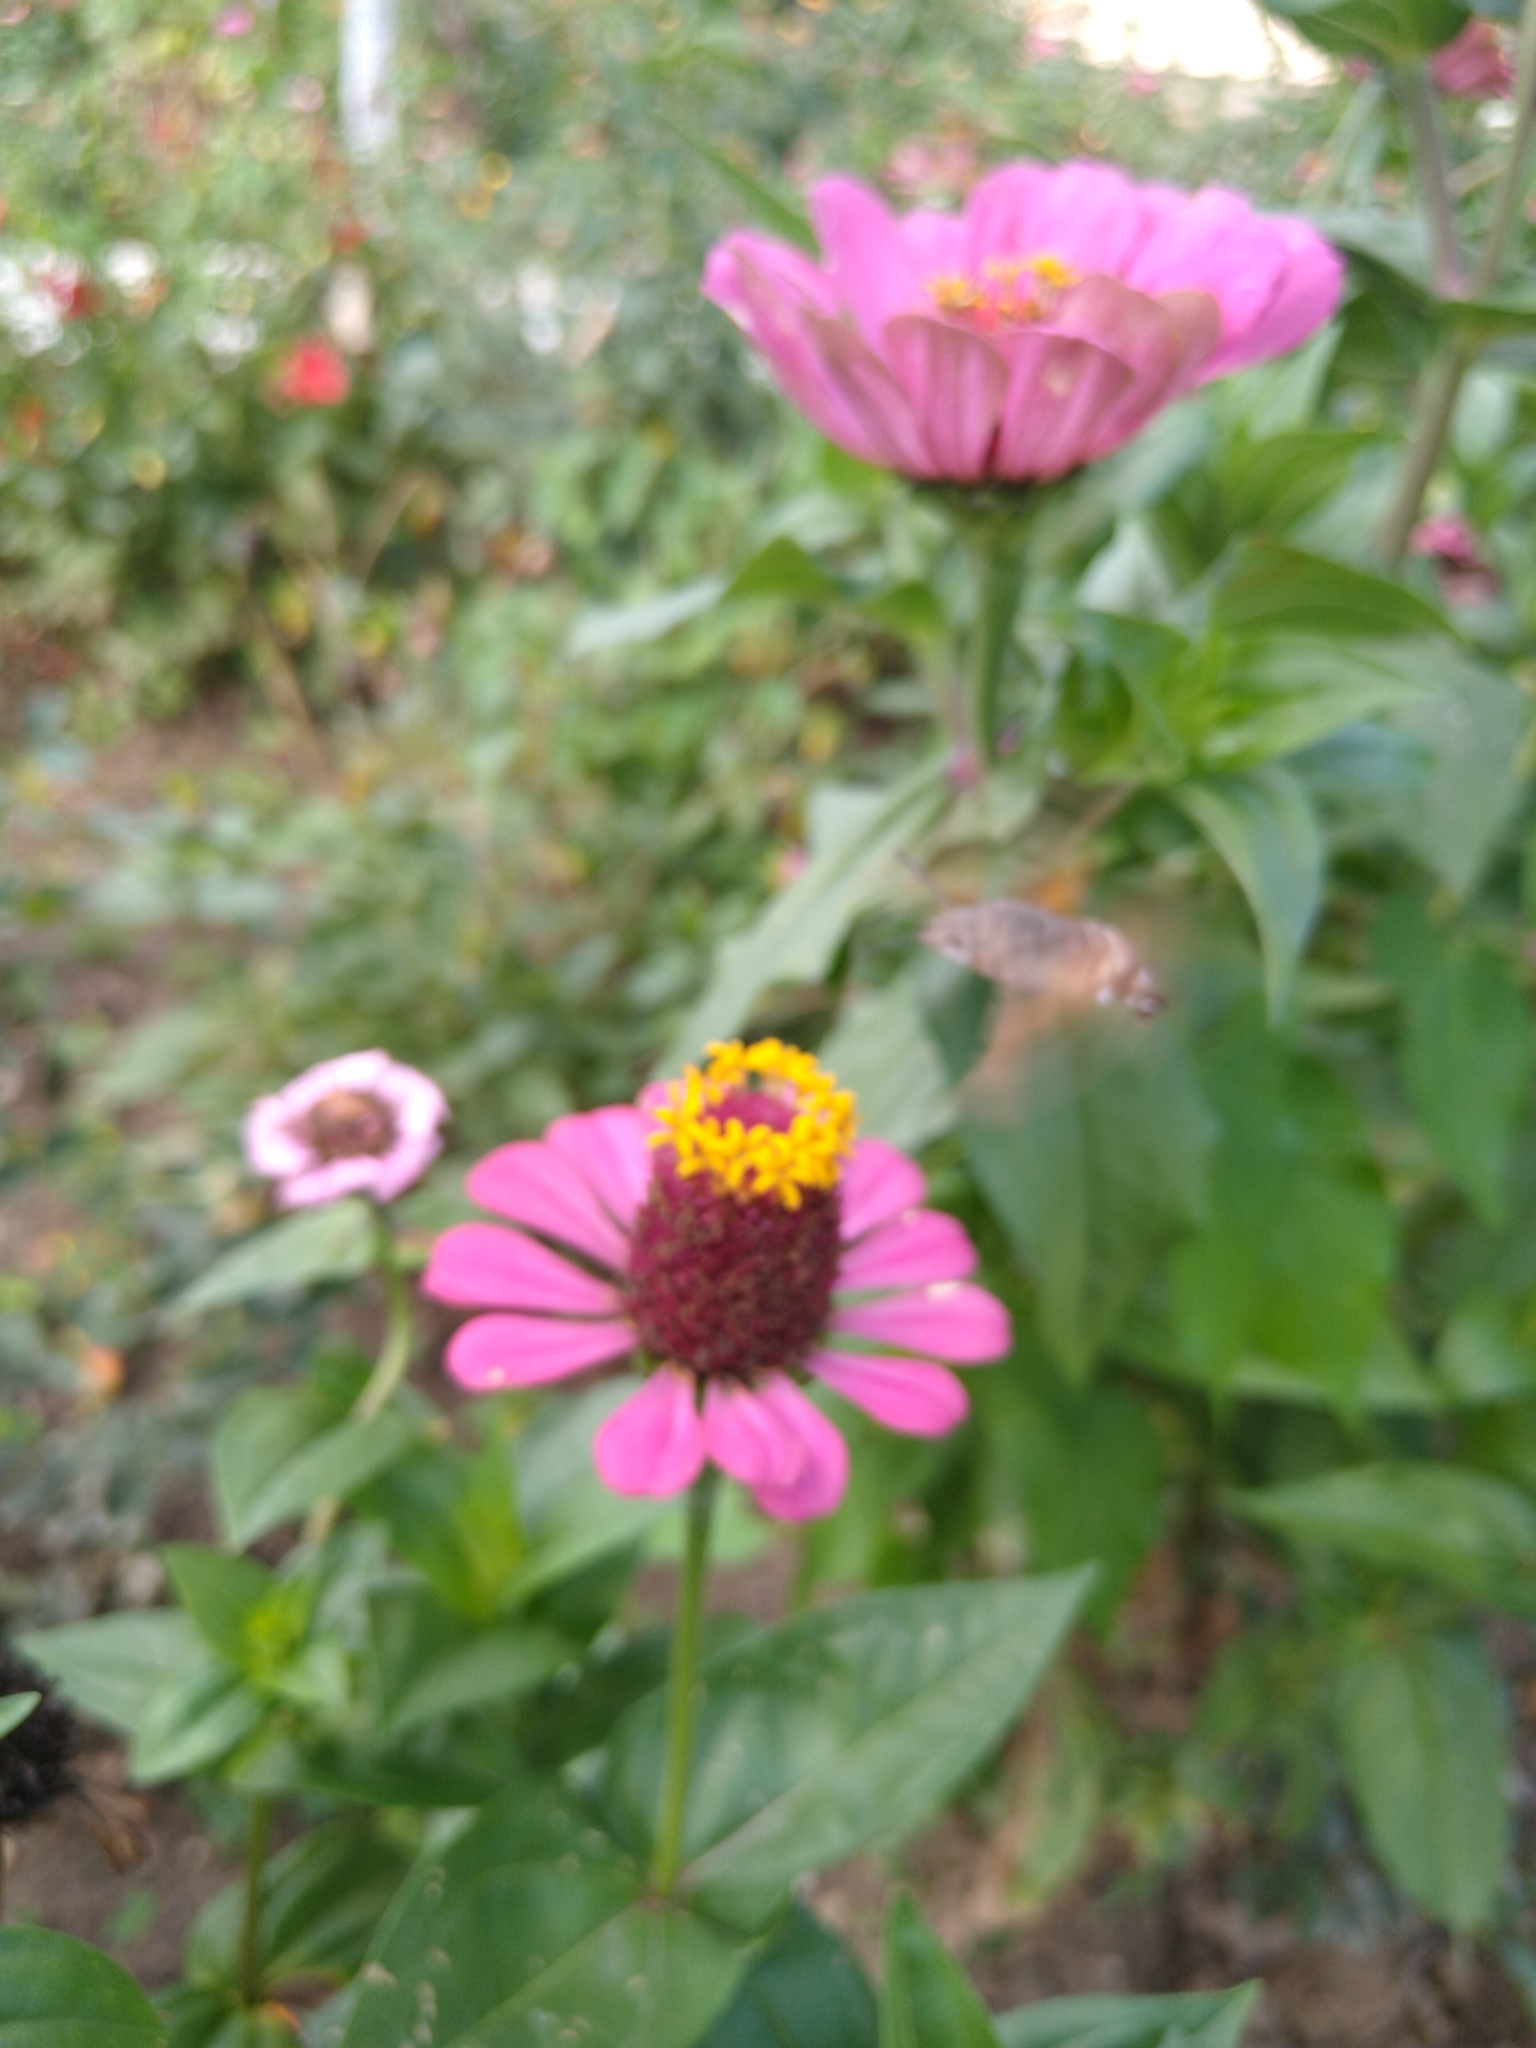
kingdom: Animalia
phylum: Arthropoda
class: Insecta
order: Lepidoptera
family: Sphingidae
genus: Macroglossum
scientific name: Macroglossum stellatarum
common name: Humming-bird hawk-moth
